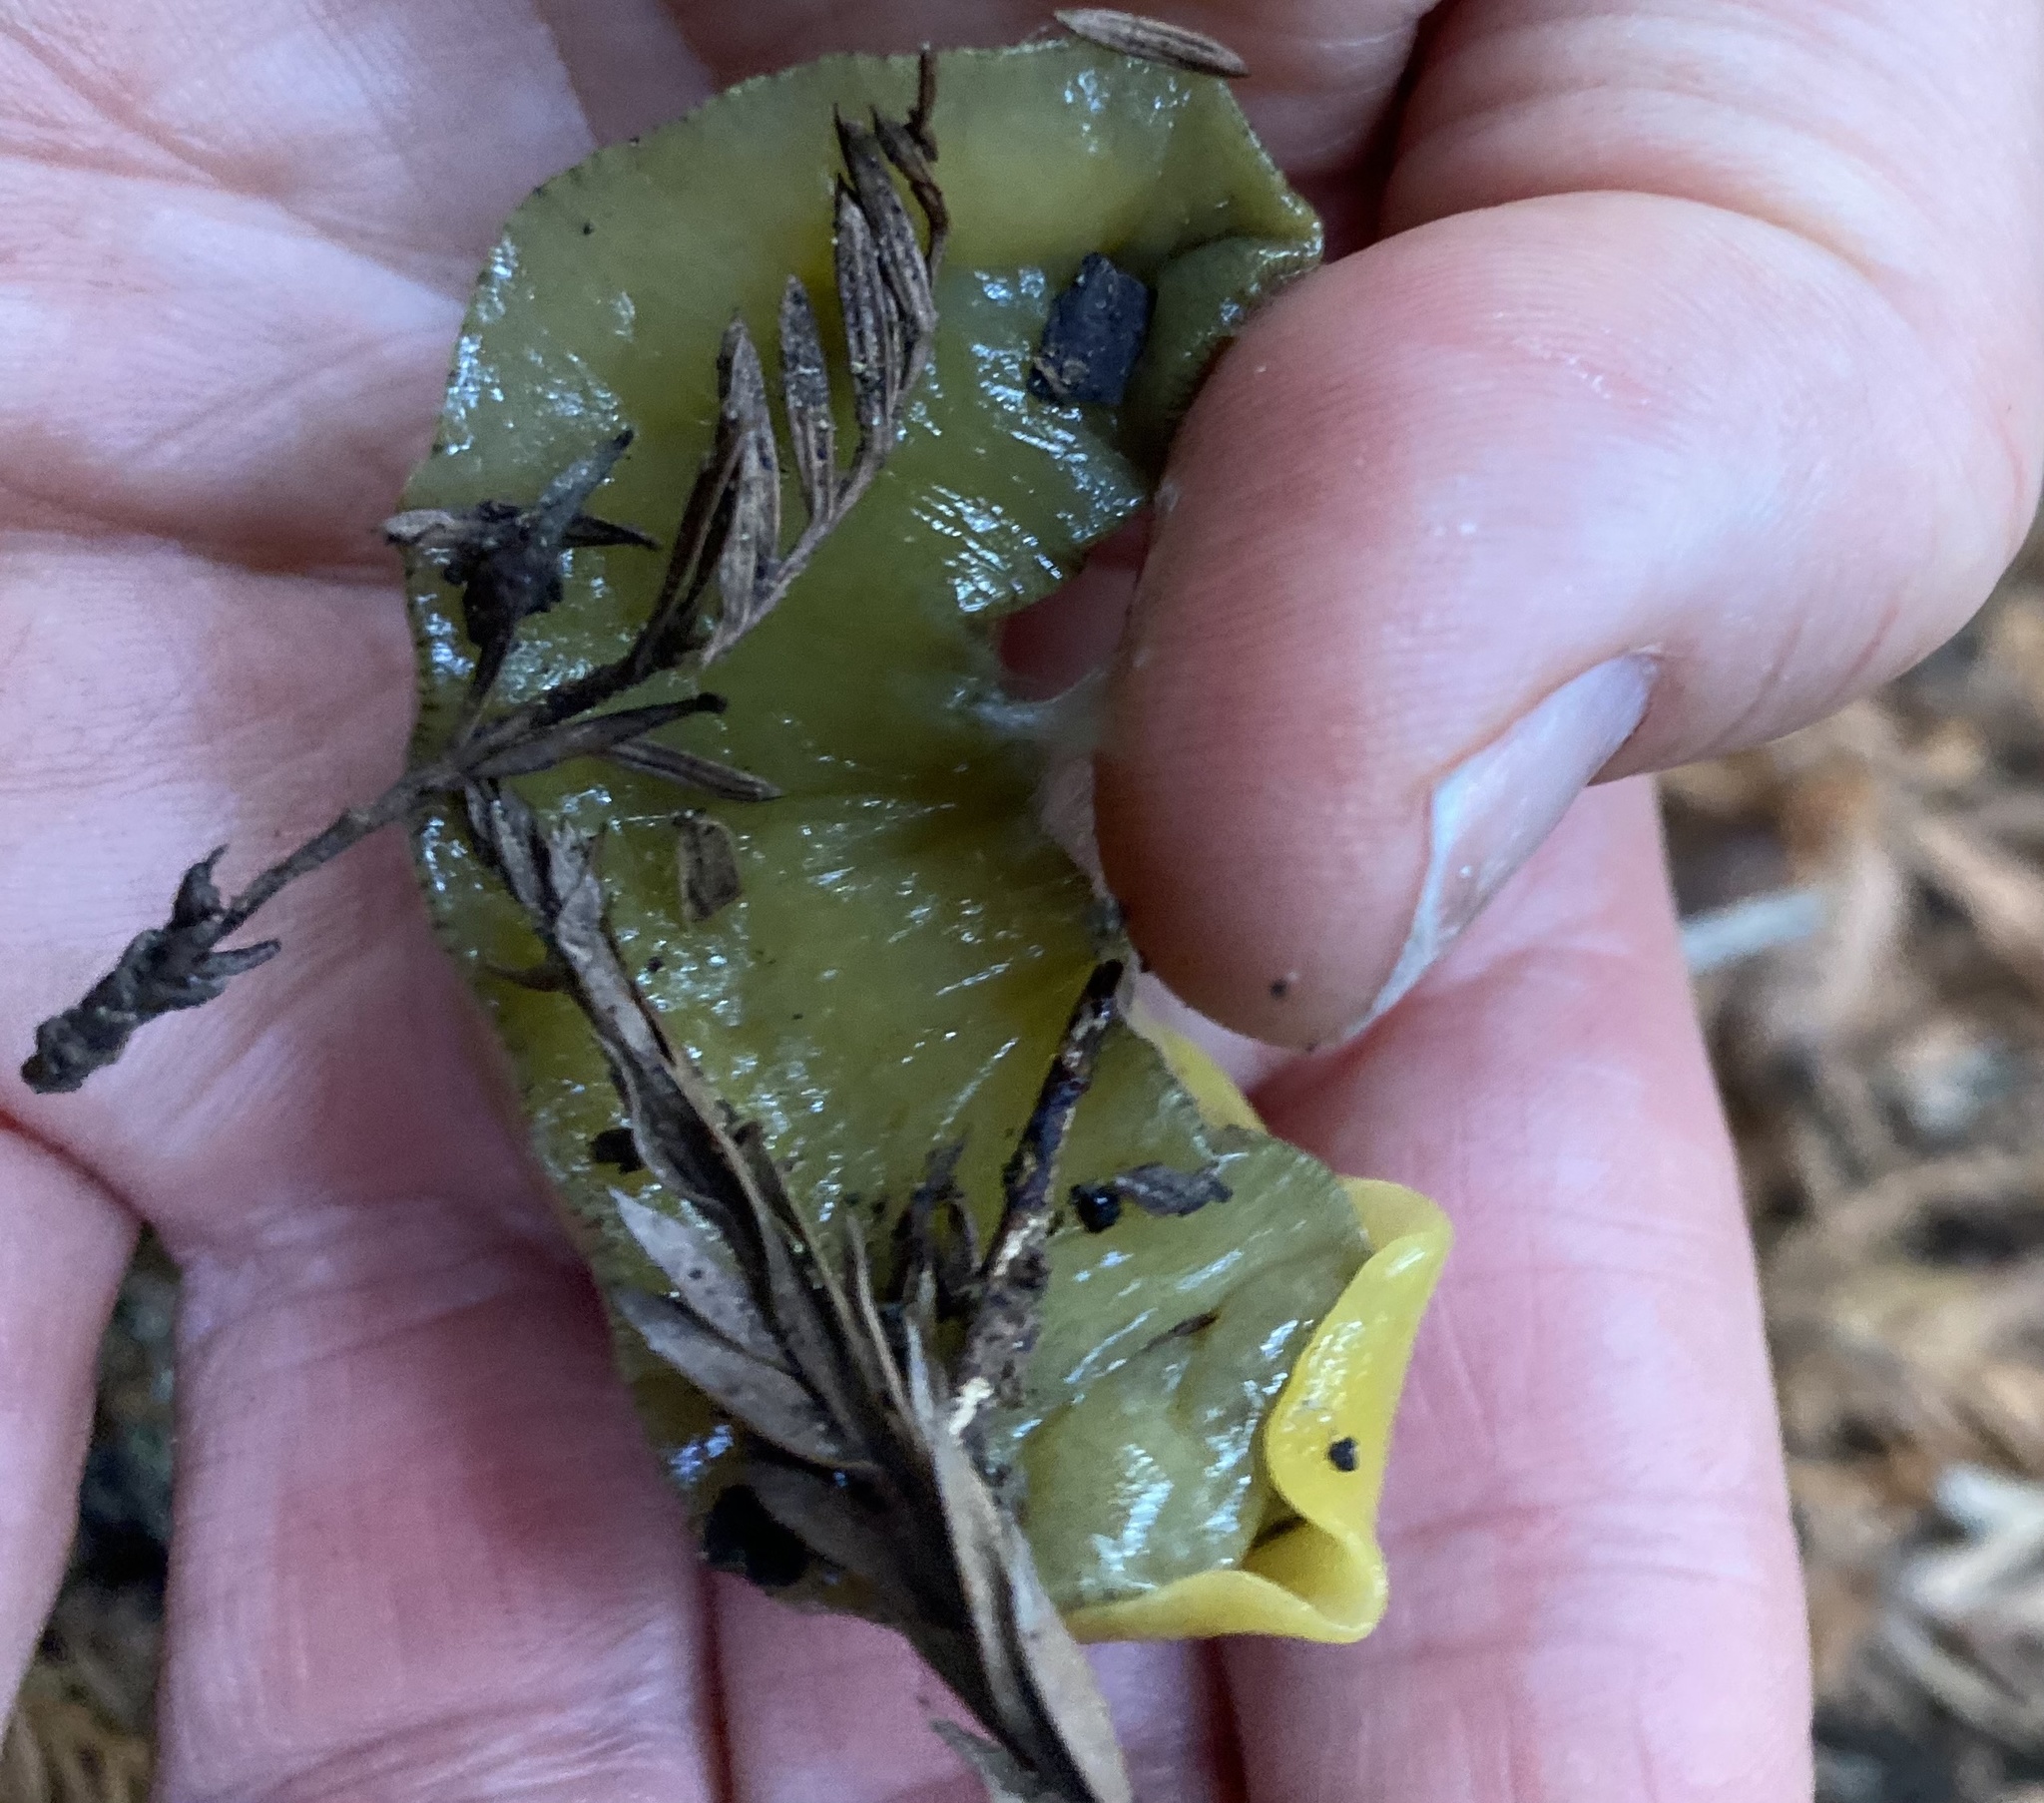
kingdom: Animalia
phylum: Mollusca
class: Gastropoda
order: Stylommatophora
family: Ariolimacidae
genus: Ariolimax
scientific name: Ariolimax dolichophallus
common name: Slender banana slug
